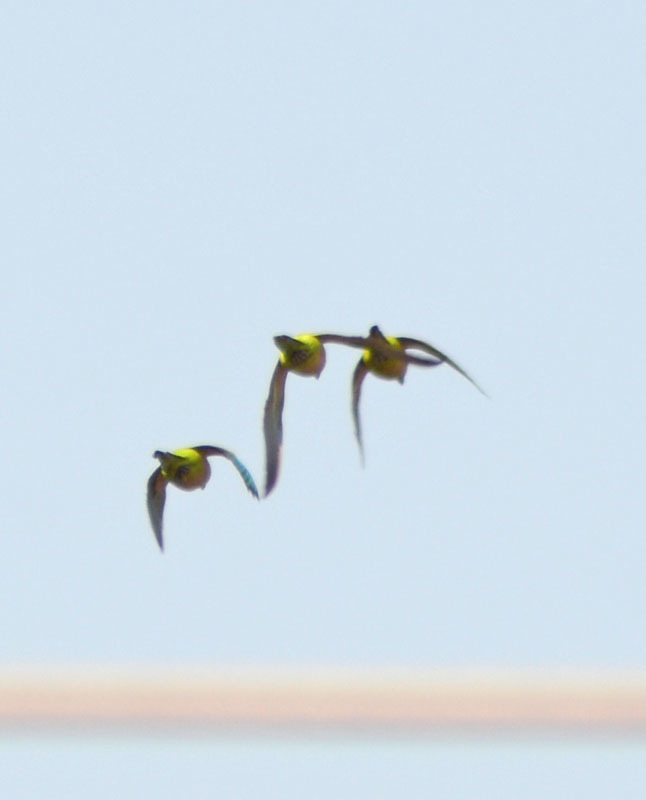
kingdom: Animalia
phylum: Chordata
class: Aves
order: Psittaciformes
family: Psittacidae
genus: Myiopsitta
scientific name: Myiopsitta monachus
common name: Monk parakeet
